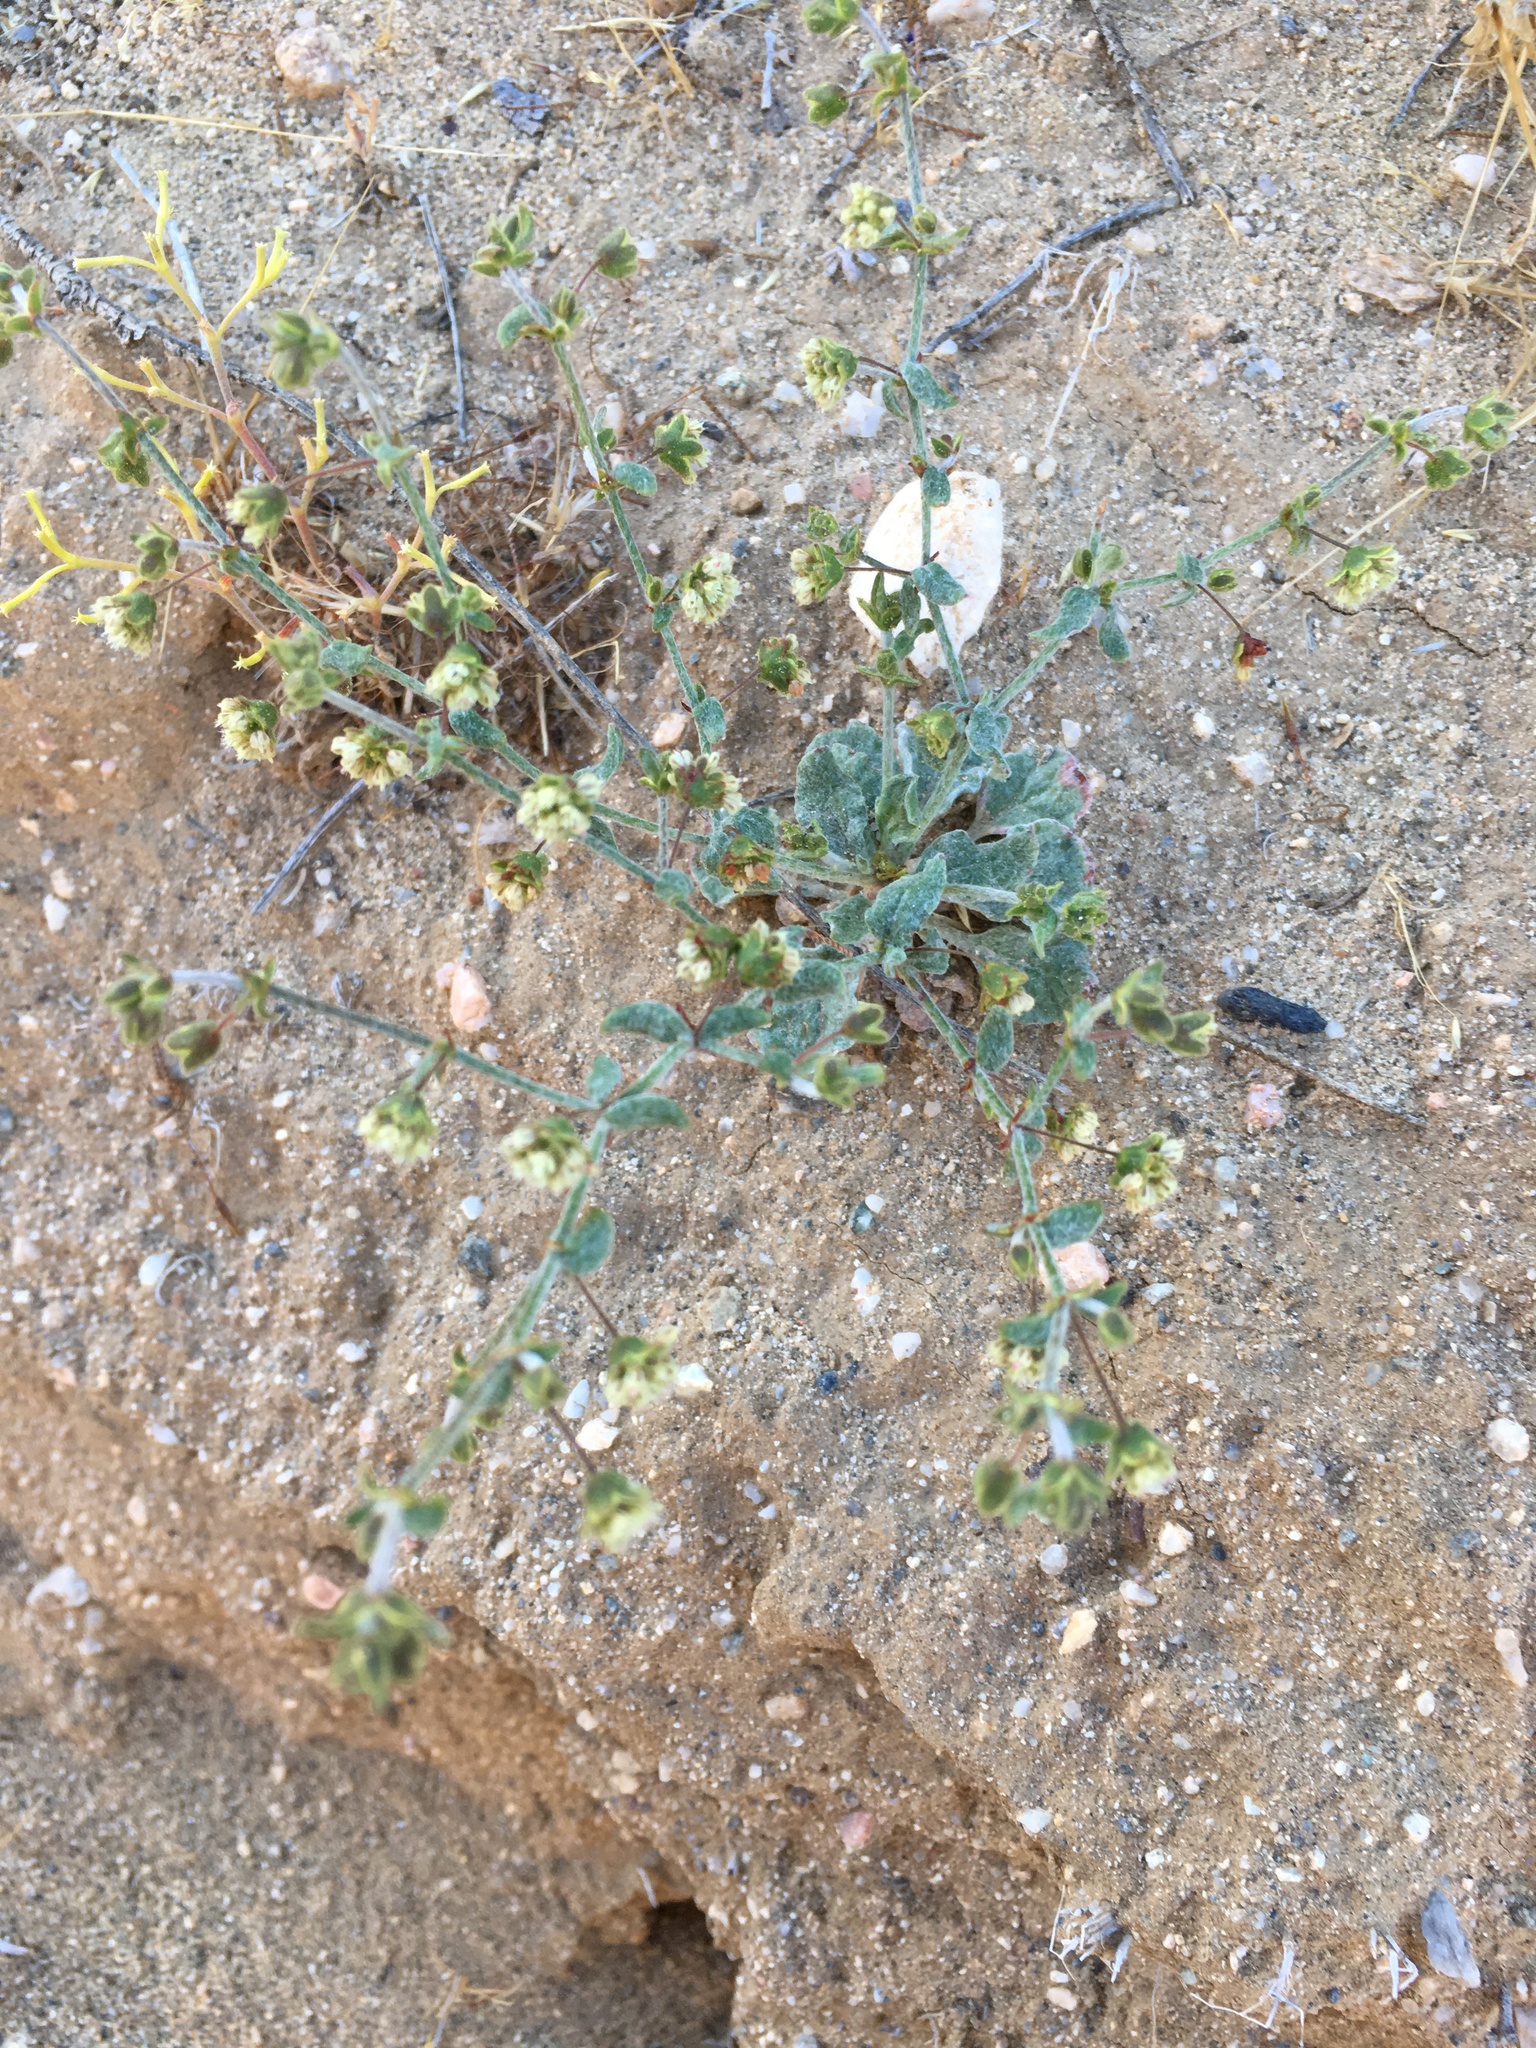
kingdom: Plantae
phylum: Tracheophyta
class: Magnoliopsida
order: Caryophyllales
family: Polygonaceae
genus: Eriogonum
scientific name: Eriogonum viridescens
